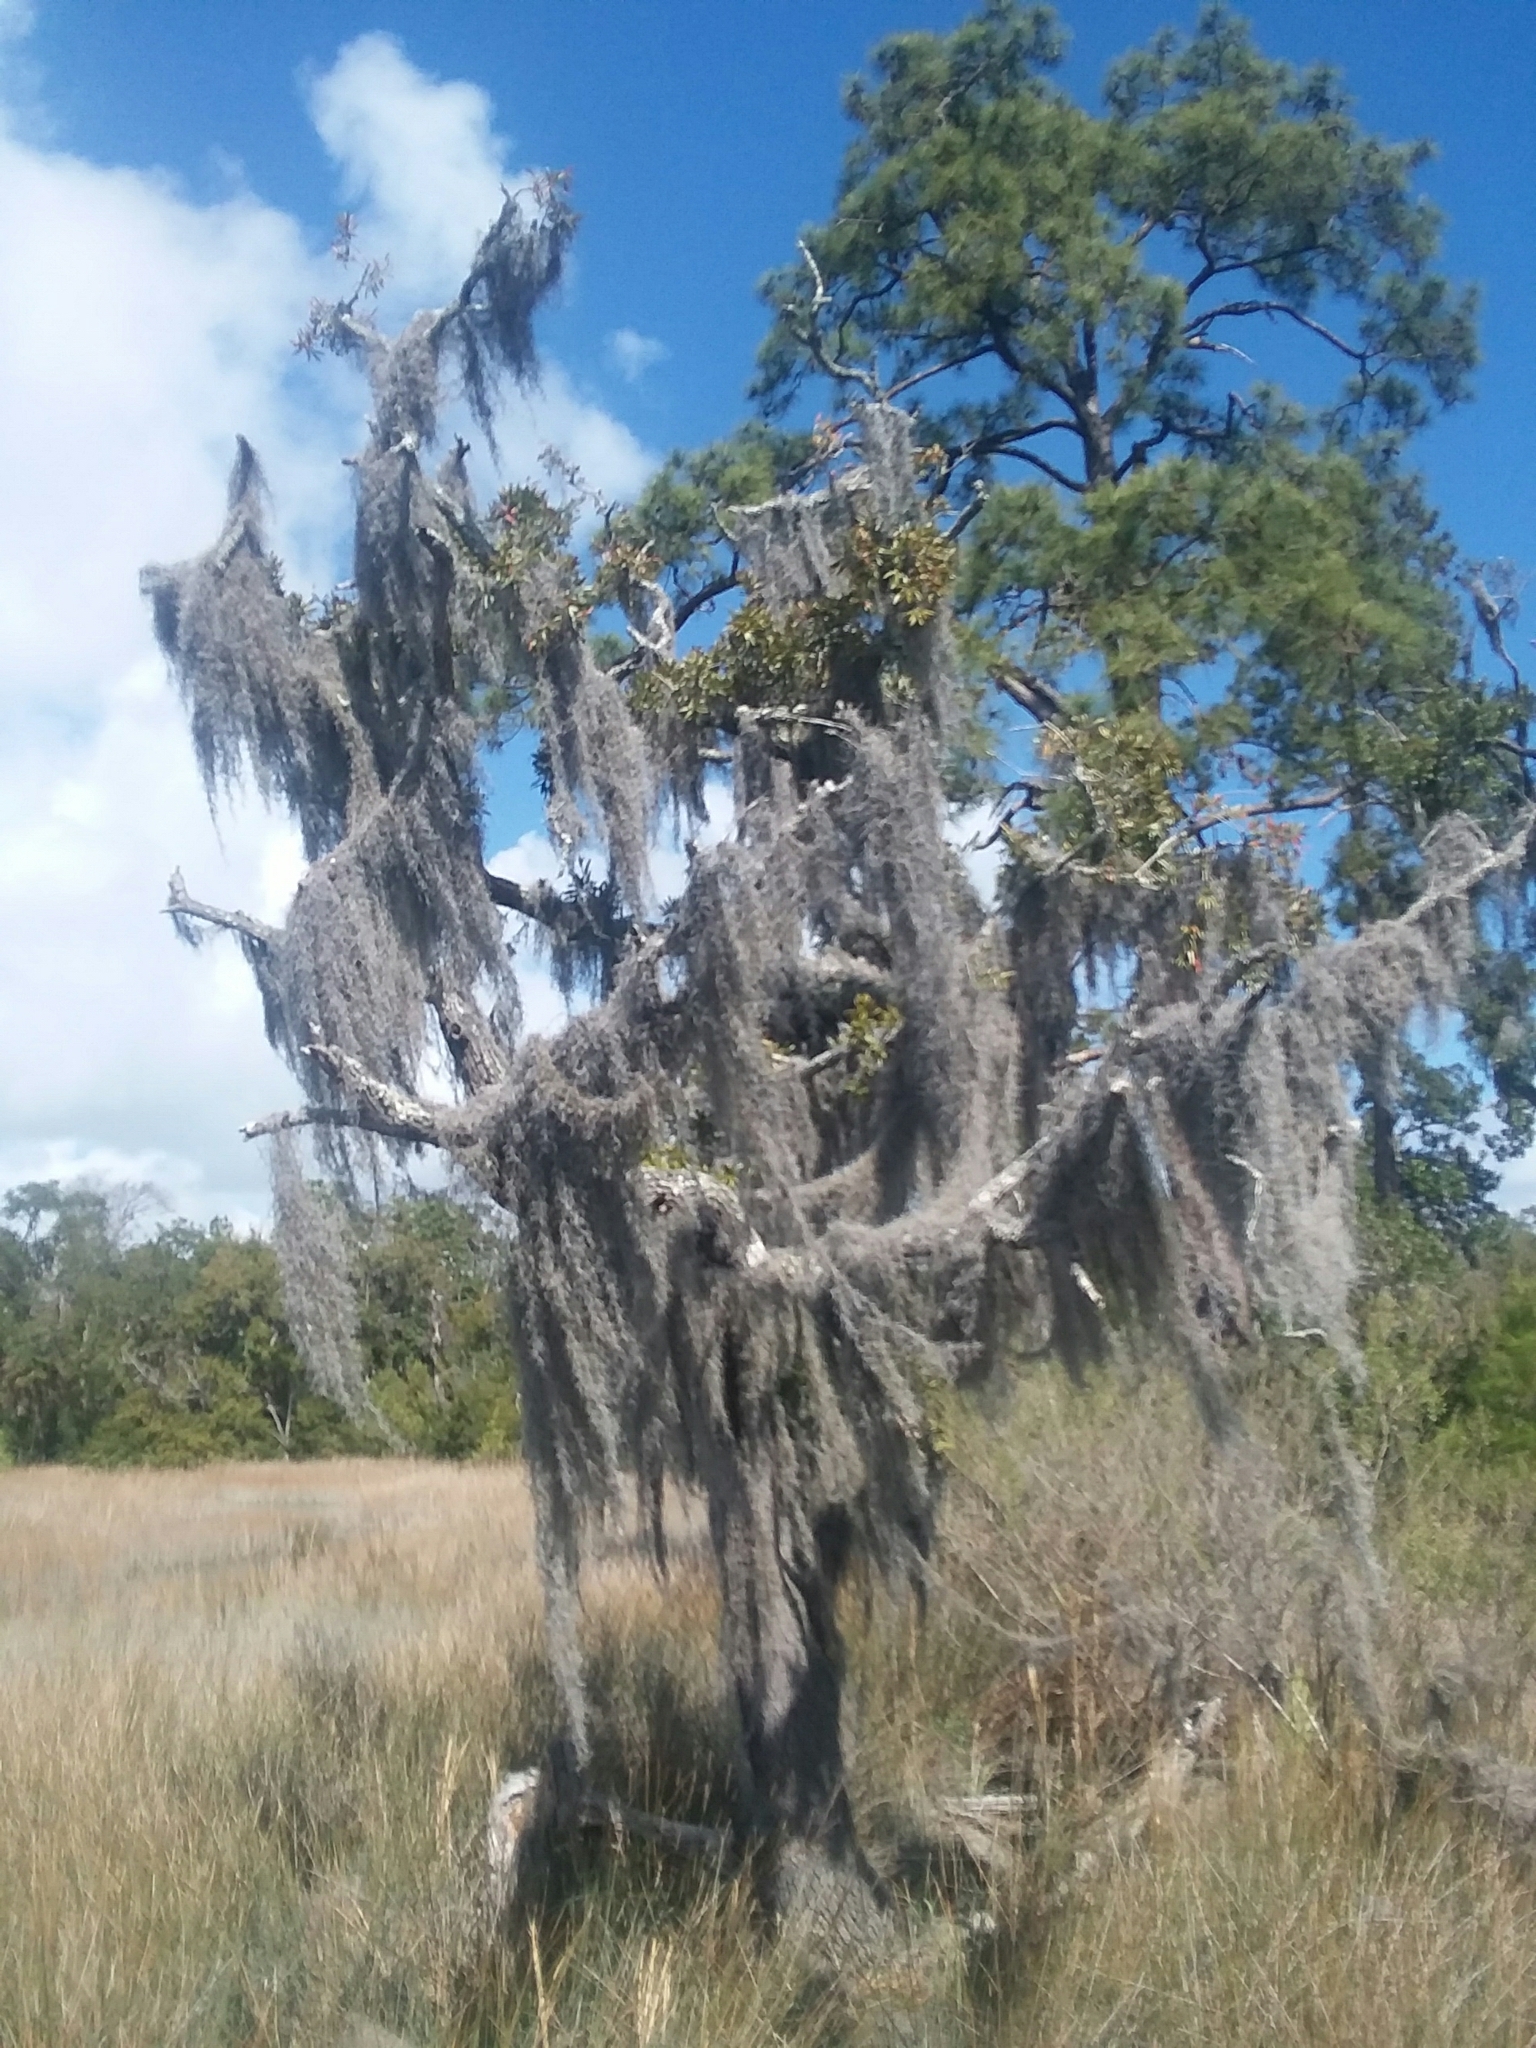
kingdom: Plantae
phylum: Tracheophyta
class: Liliopsida
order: Poales
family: Bromeliaceae
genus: Tillandsia
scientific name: Tillandsia usneoides
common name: Spanish moss
